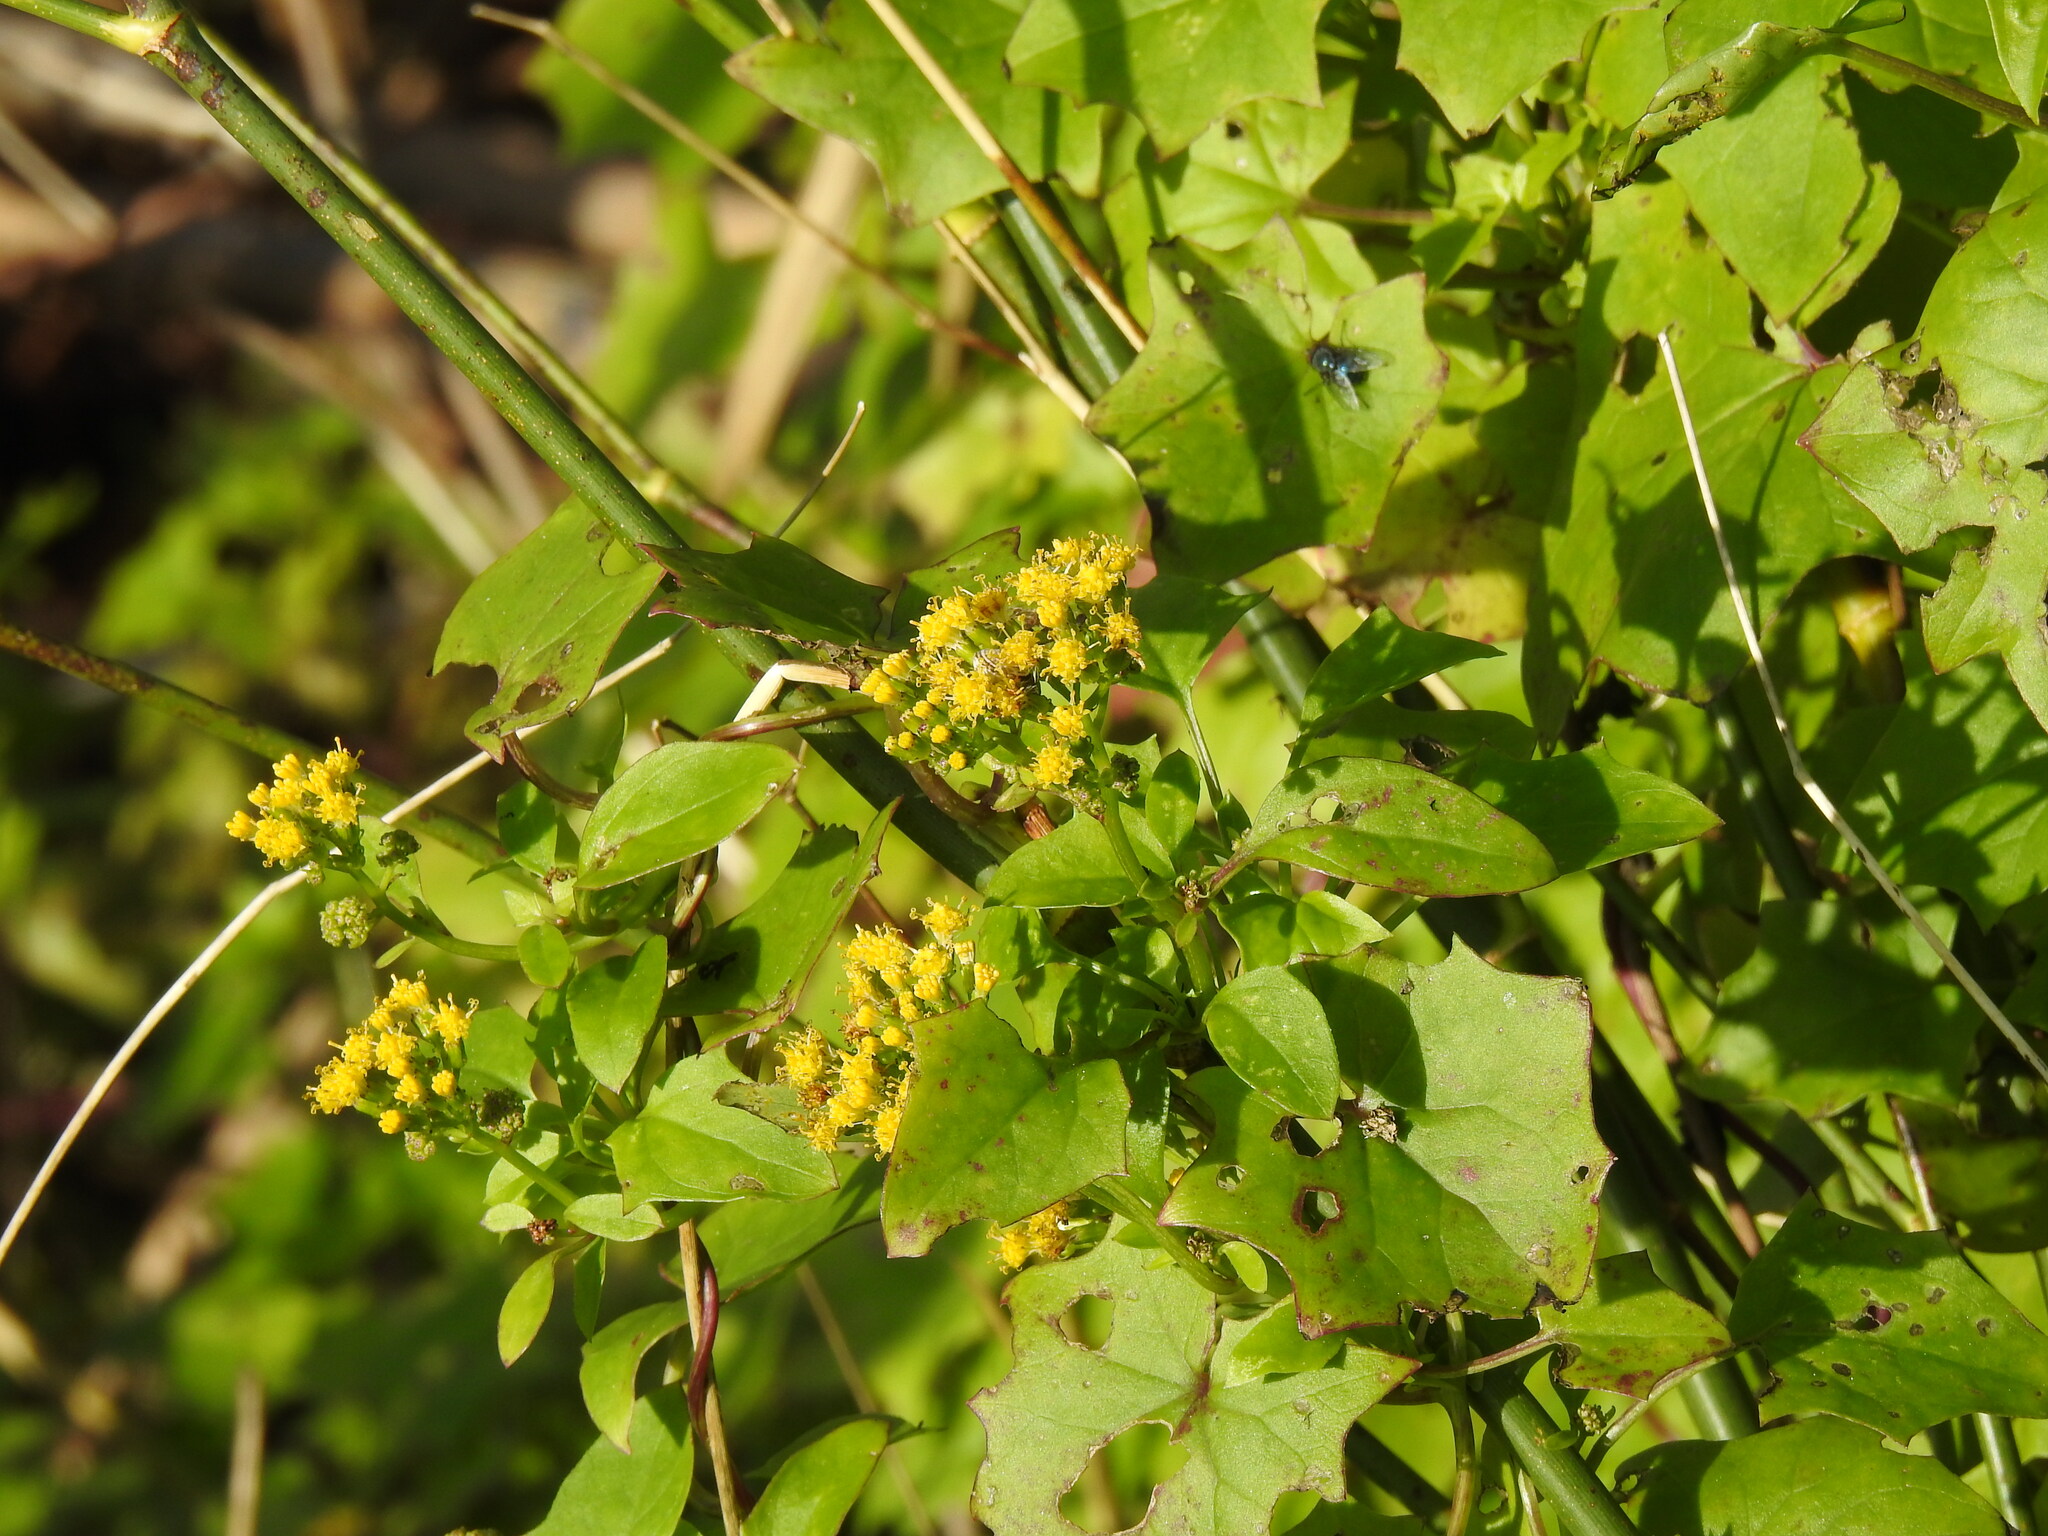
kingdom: Plantae
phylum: Tracheophyta
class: Magnoliopsida
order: Asterales
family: Asteraceae
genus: Delairea
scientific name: Delairea odorata
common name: Cape-ivy
